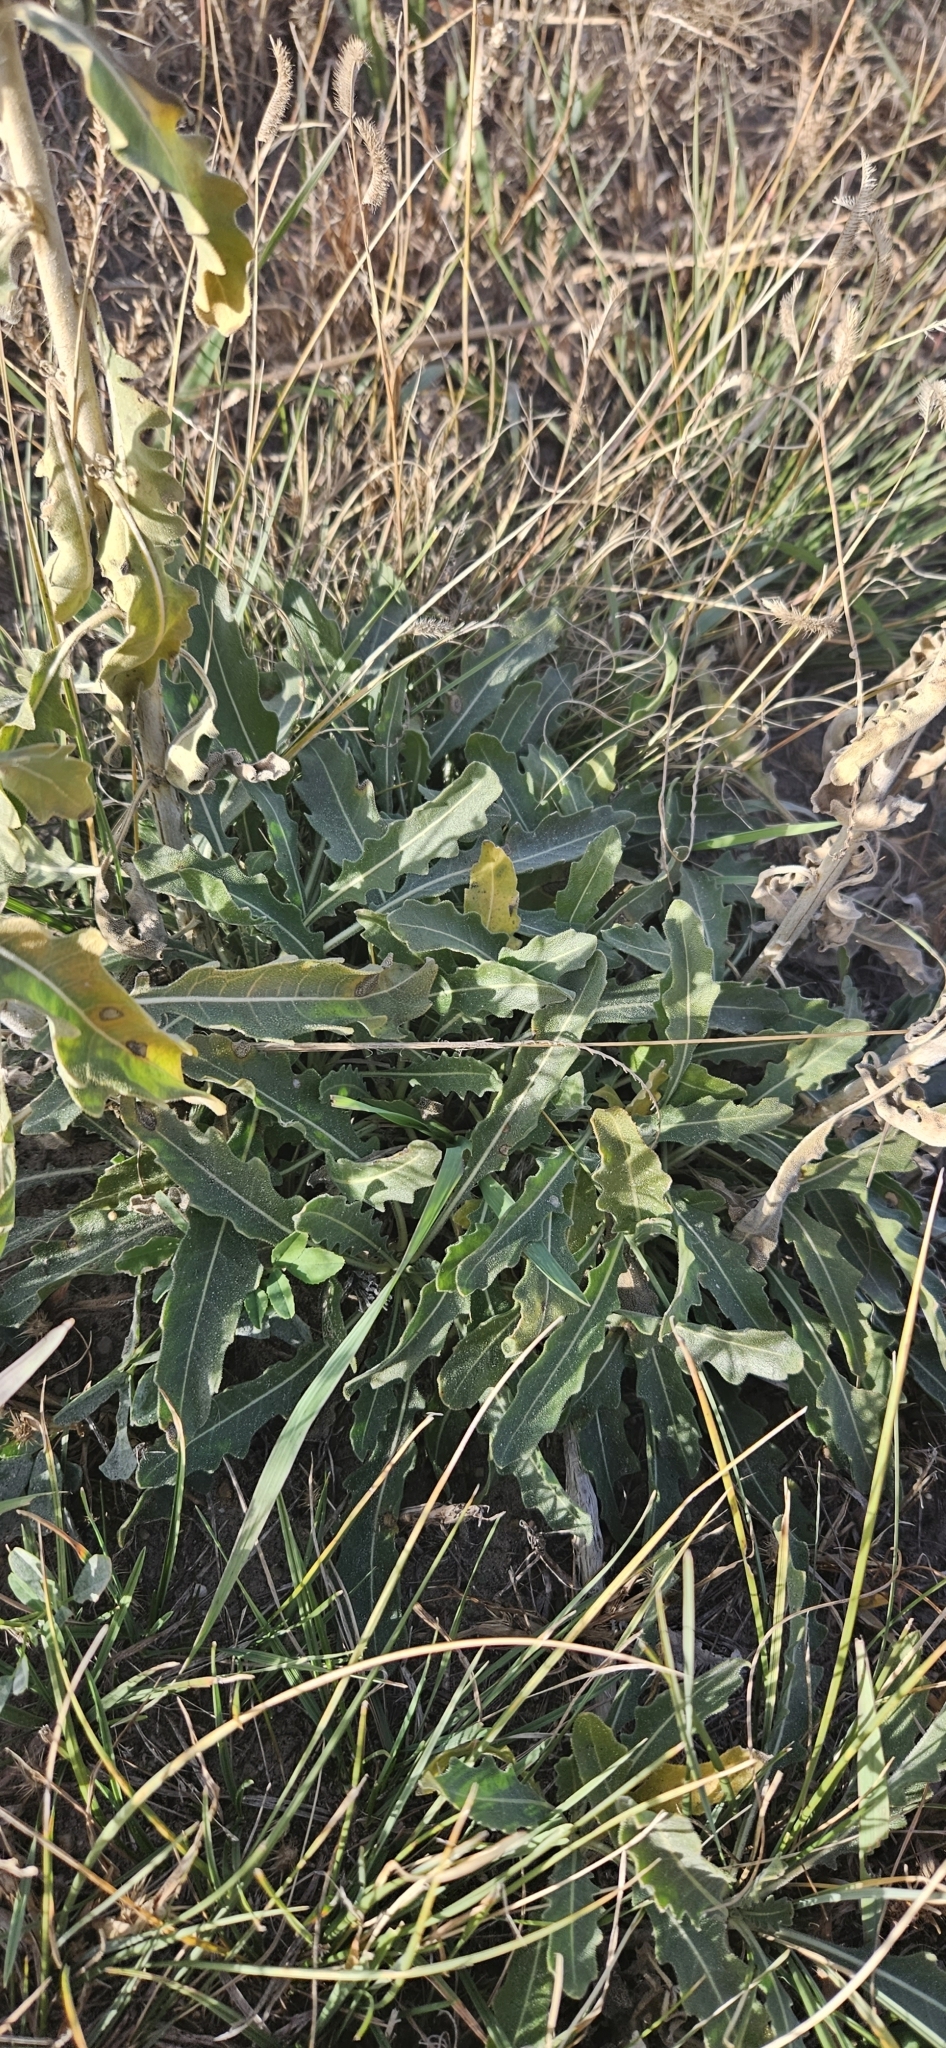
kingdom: Plantae
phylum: Tracheophyta
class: Magnoliopsida
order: Cornales
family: Loasaceae
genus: Mentzelia
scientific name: Mentzelia nuda
